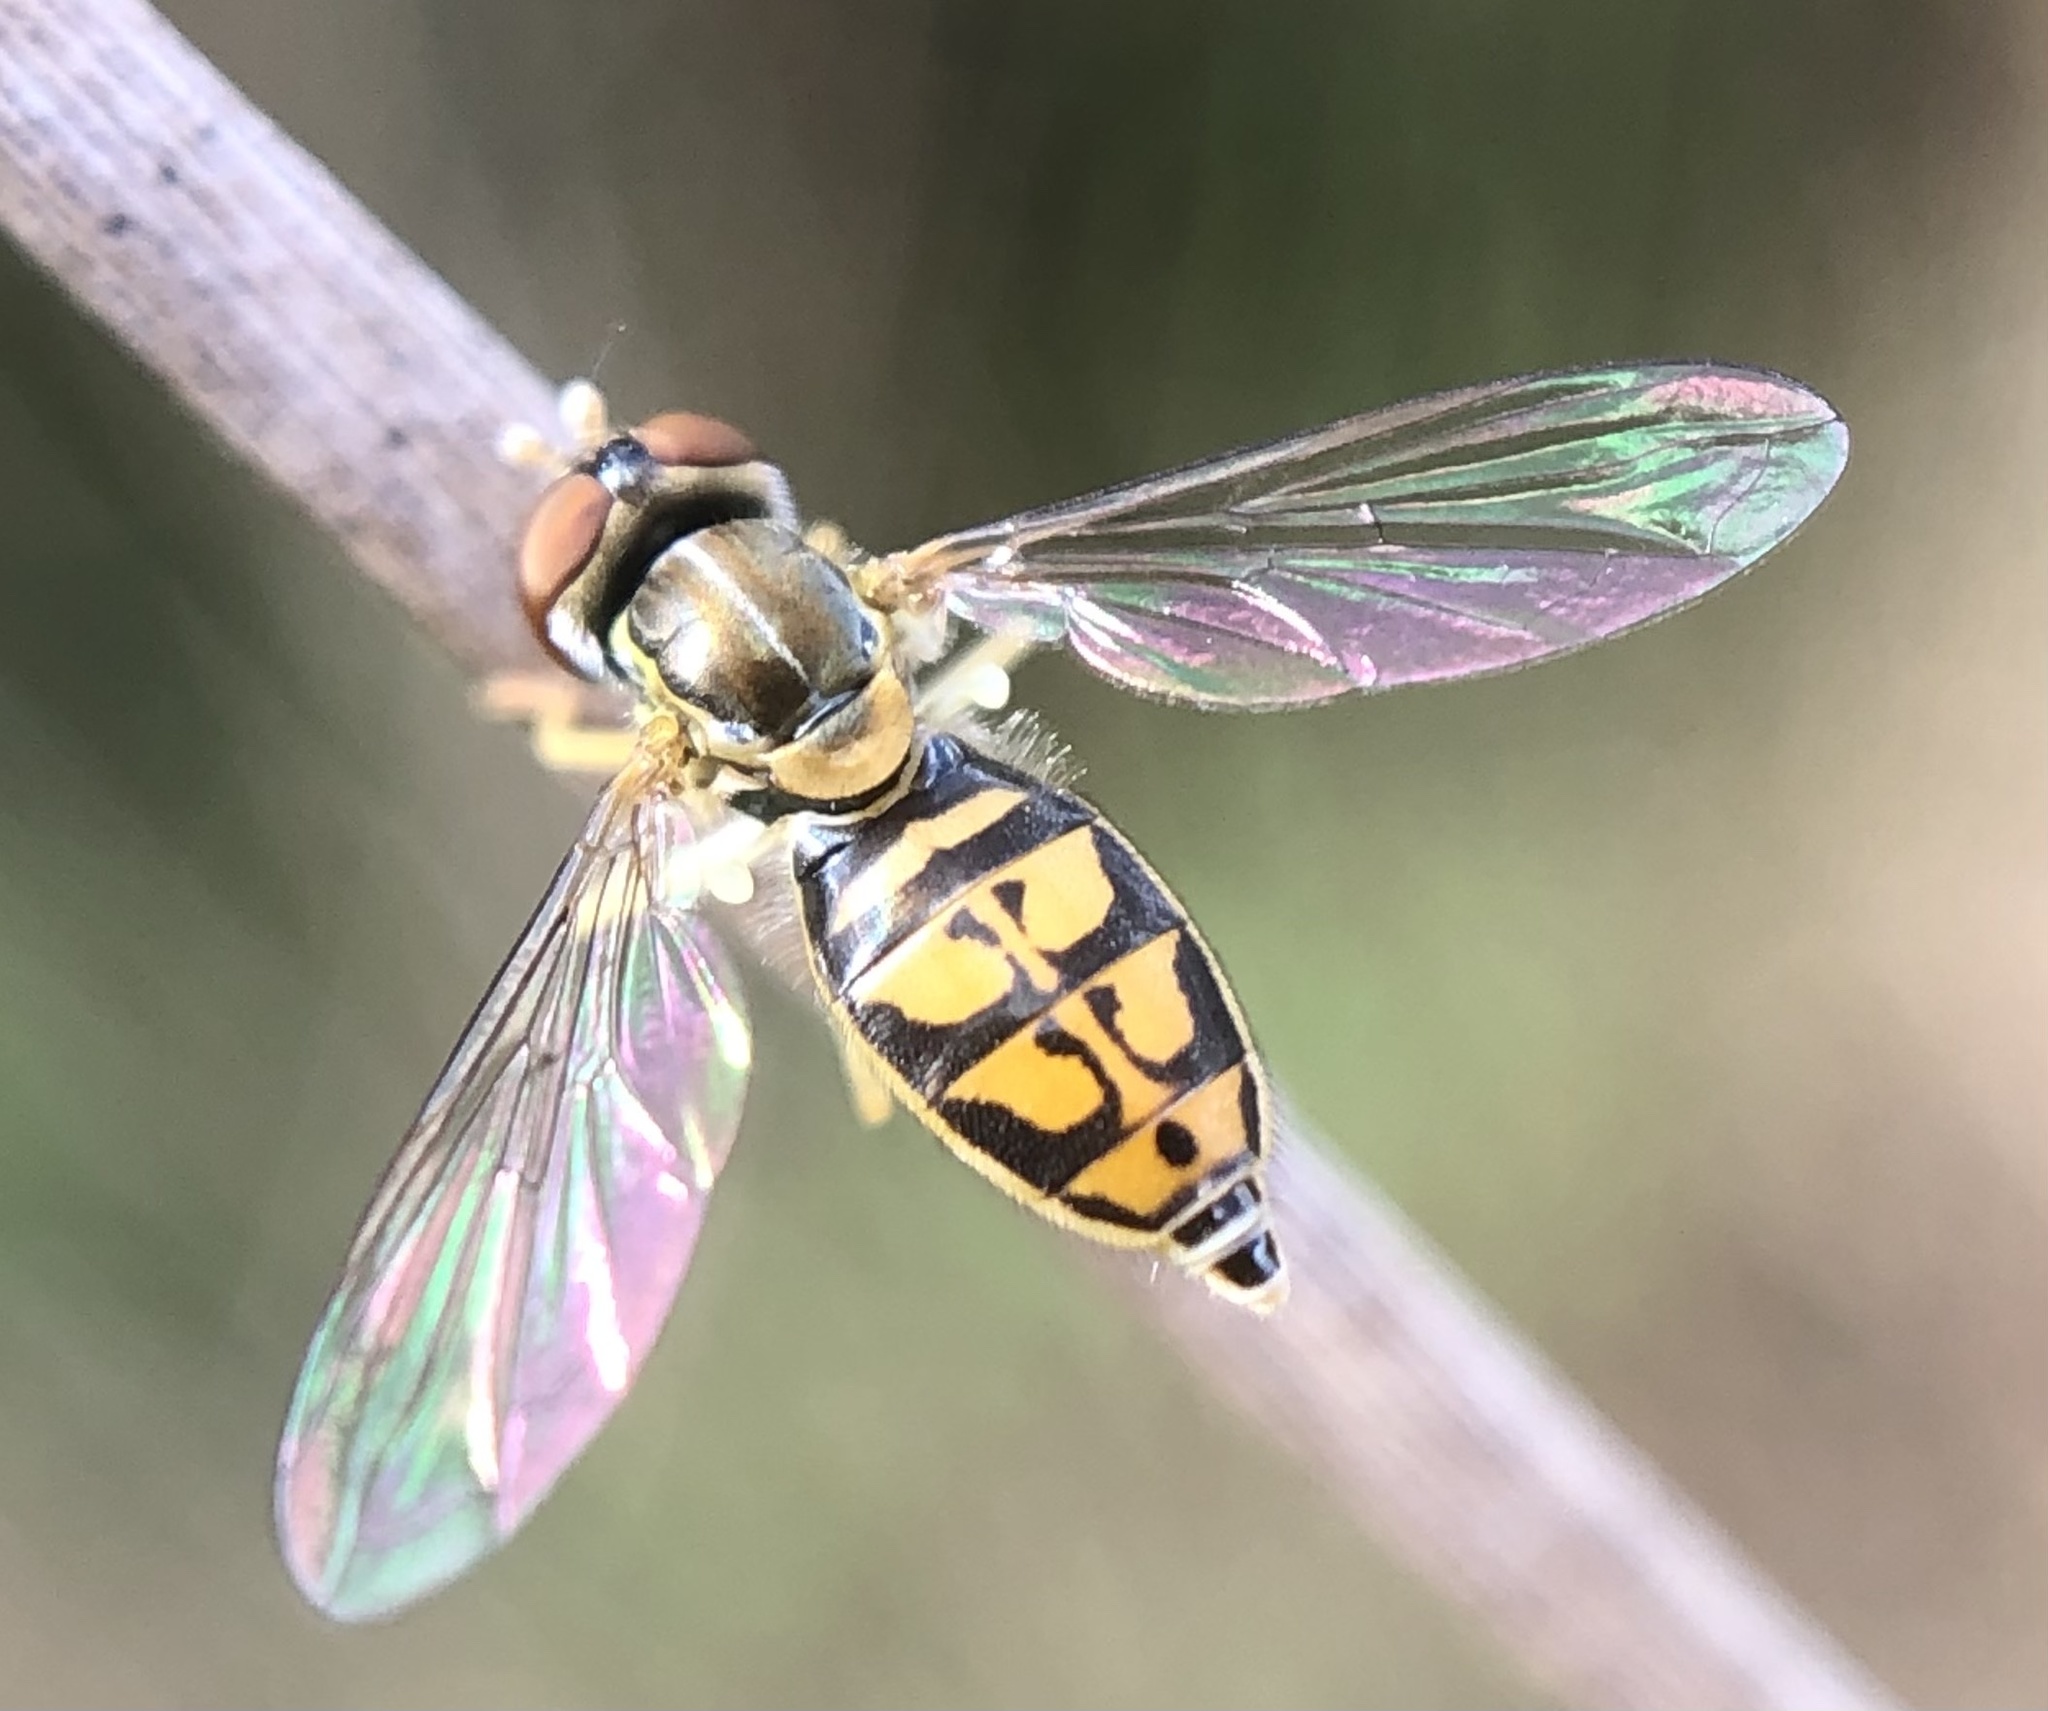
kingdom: Animalia
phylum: Arthropoda
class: Insecta
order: Diptera
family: Syrphidae
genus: Toxomerus
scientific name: Toxomerus marginatus
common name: Syrphid fly
